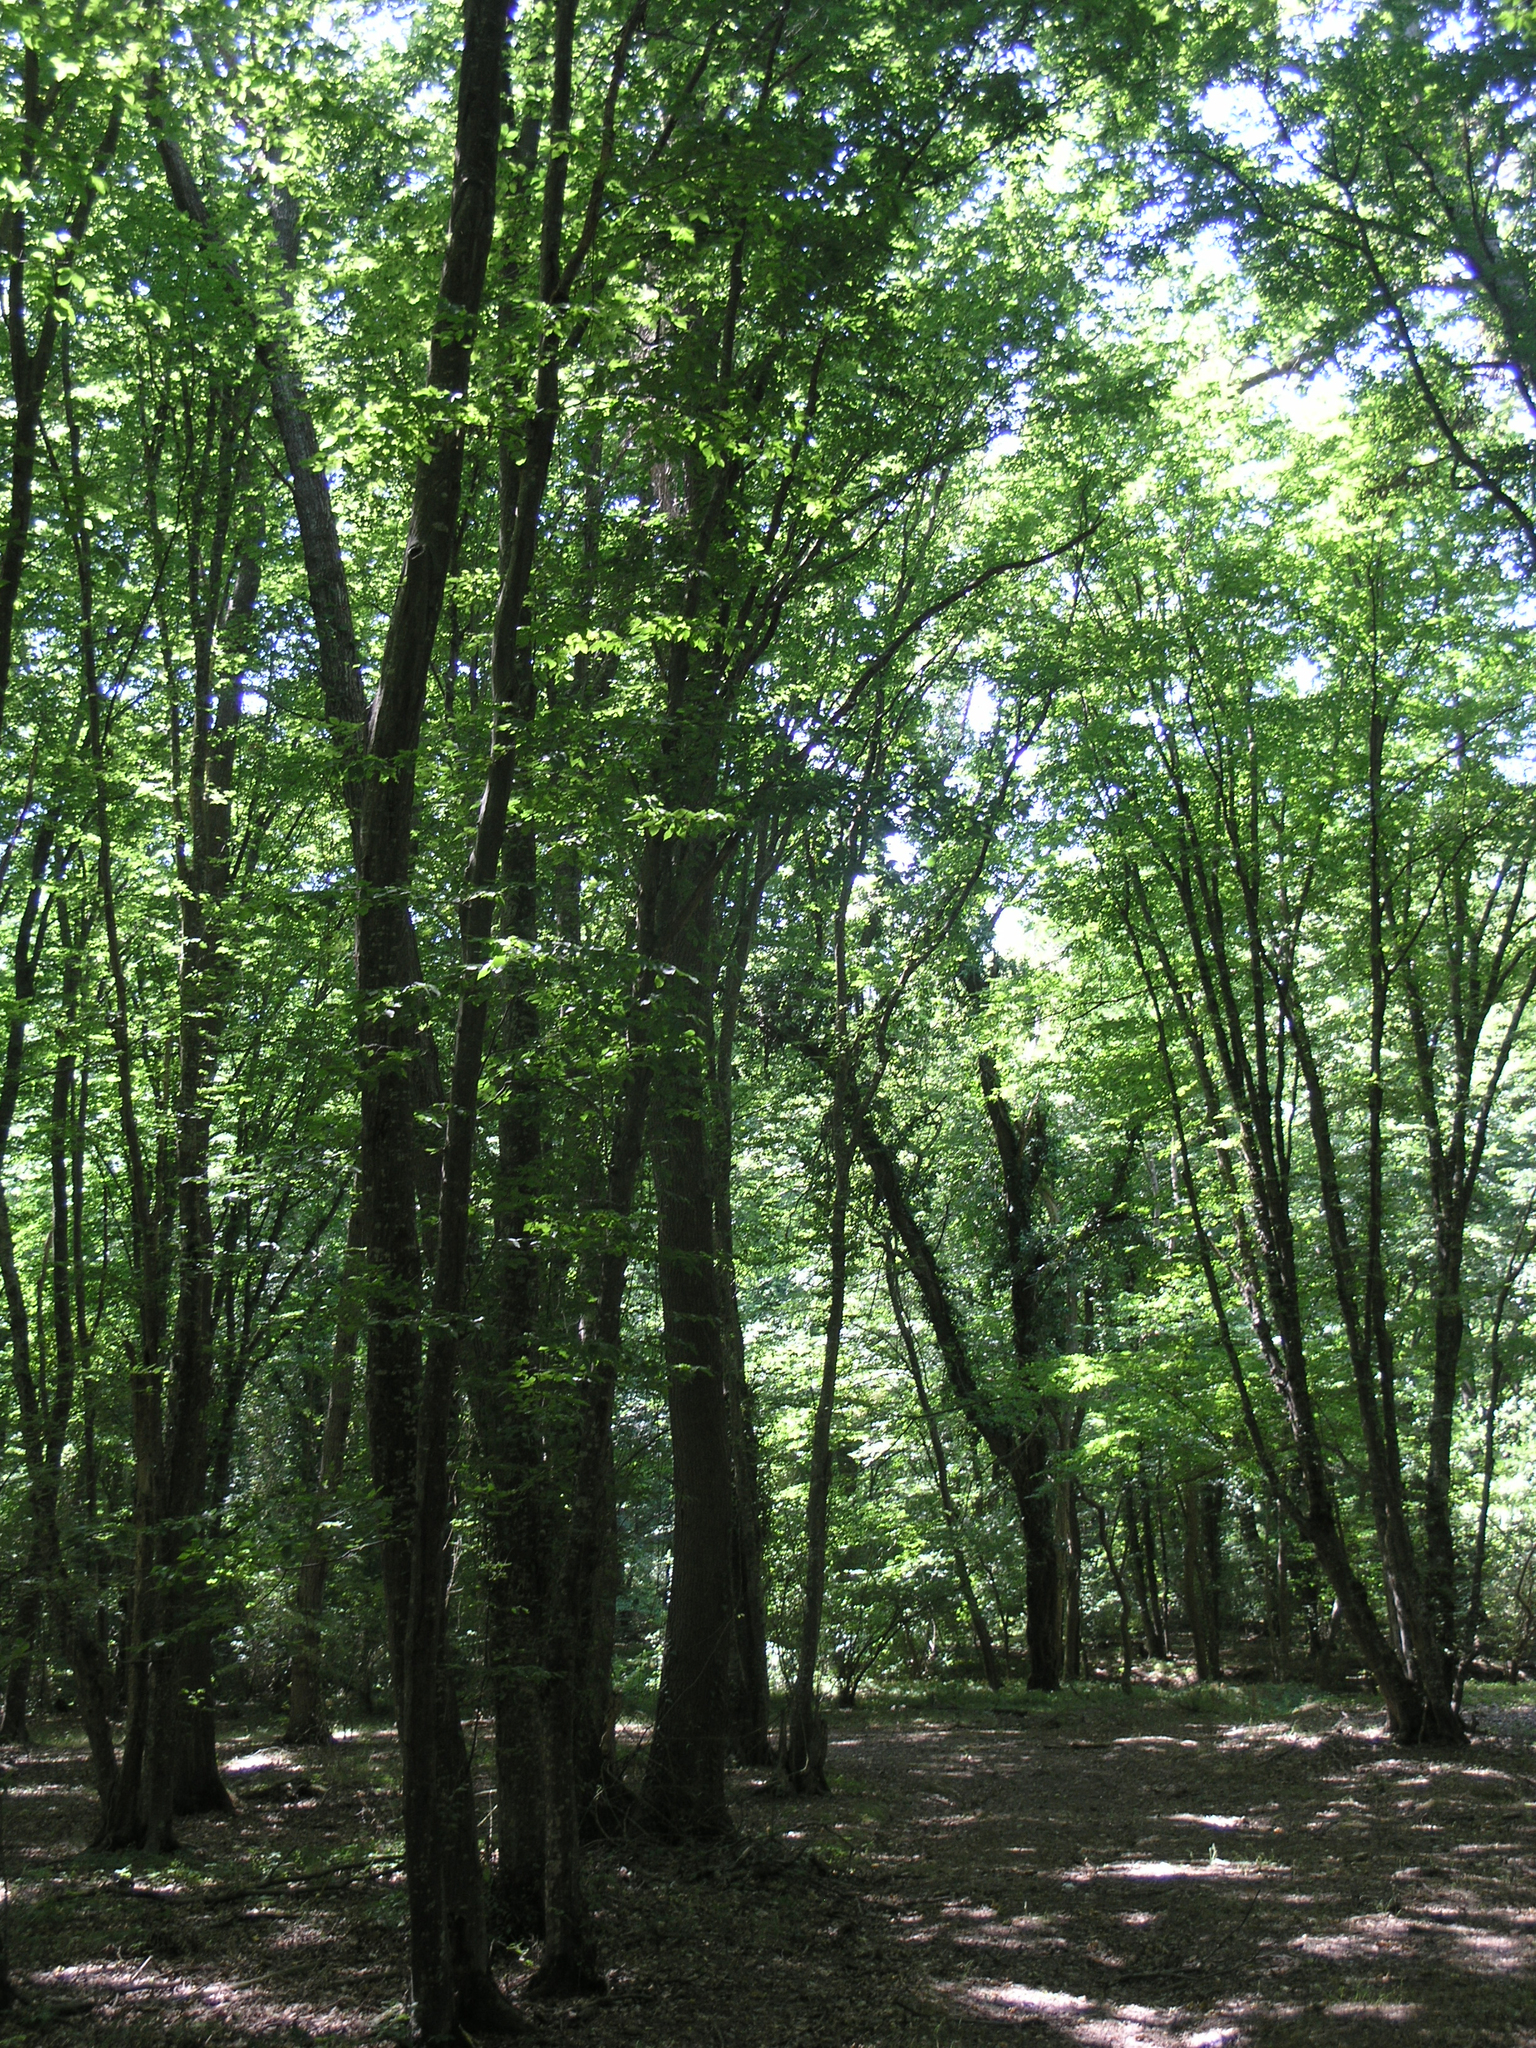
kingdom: Plantae
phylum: Tracheophyta
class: Magnoliopsida
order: Fagales
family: Betulaceae
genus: Carpinus
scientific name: Carpinus betulus
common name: Hornbeam
